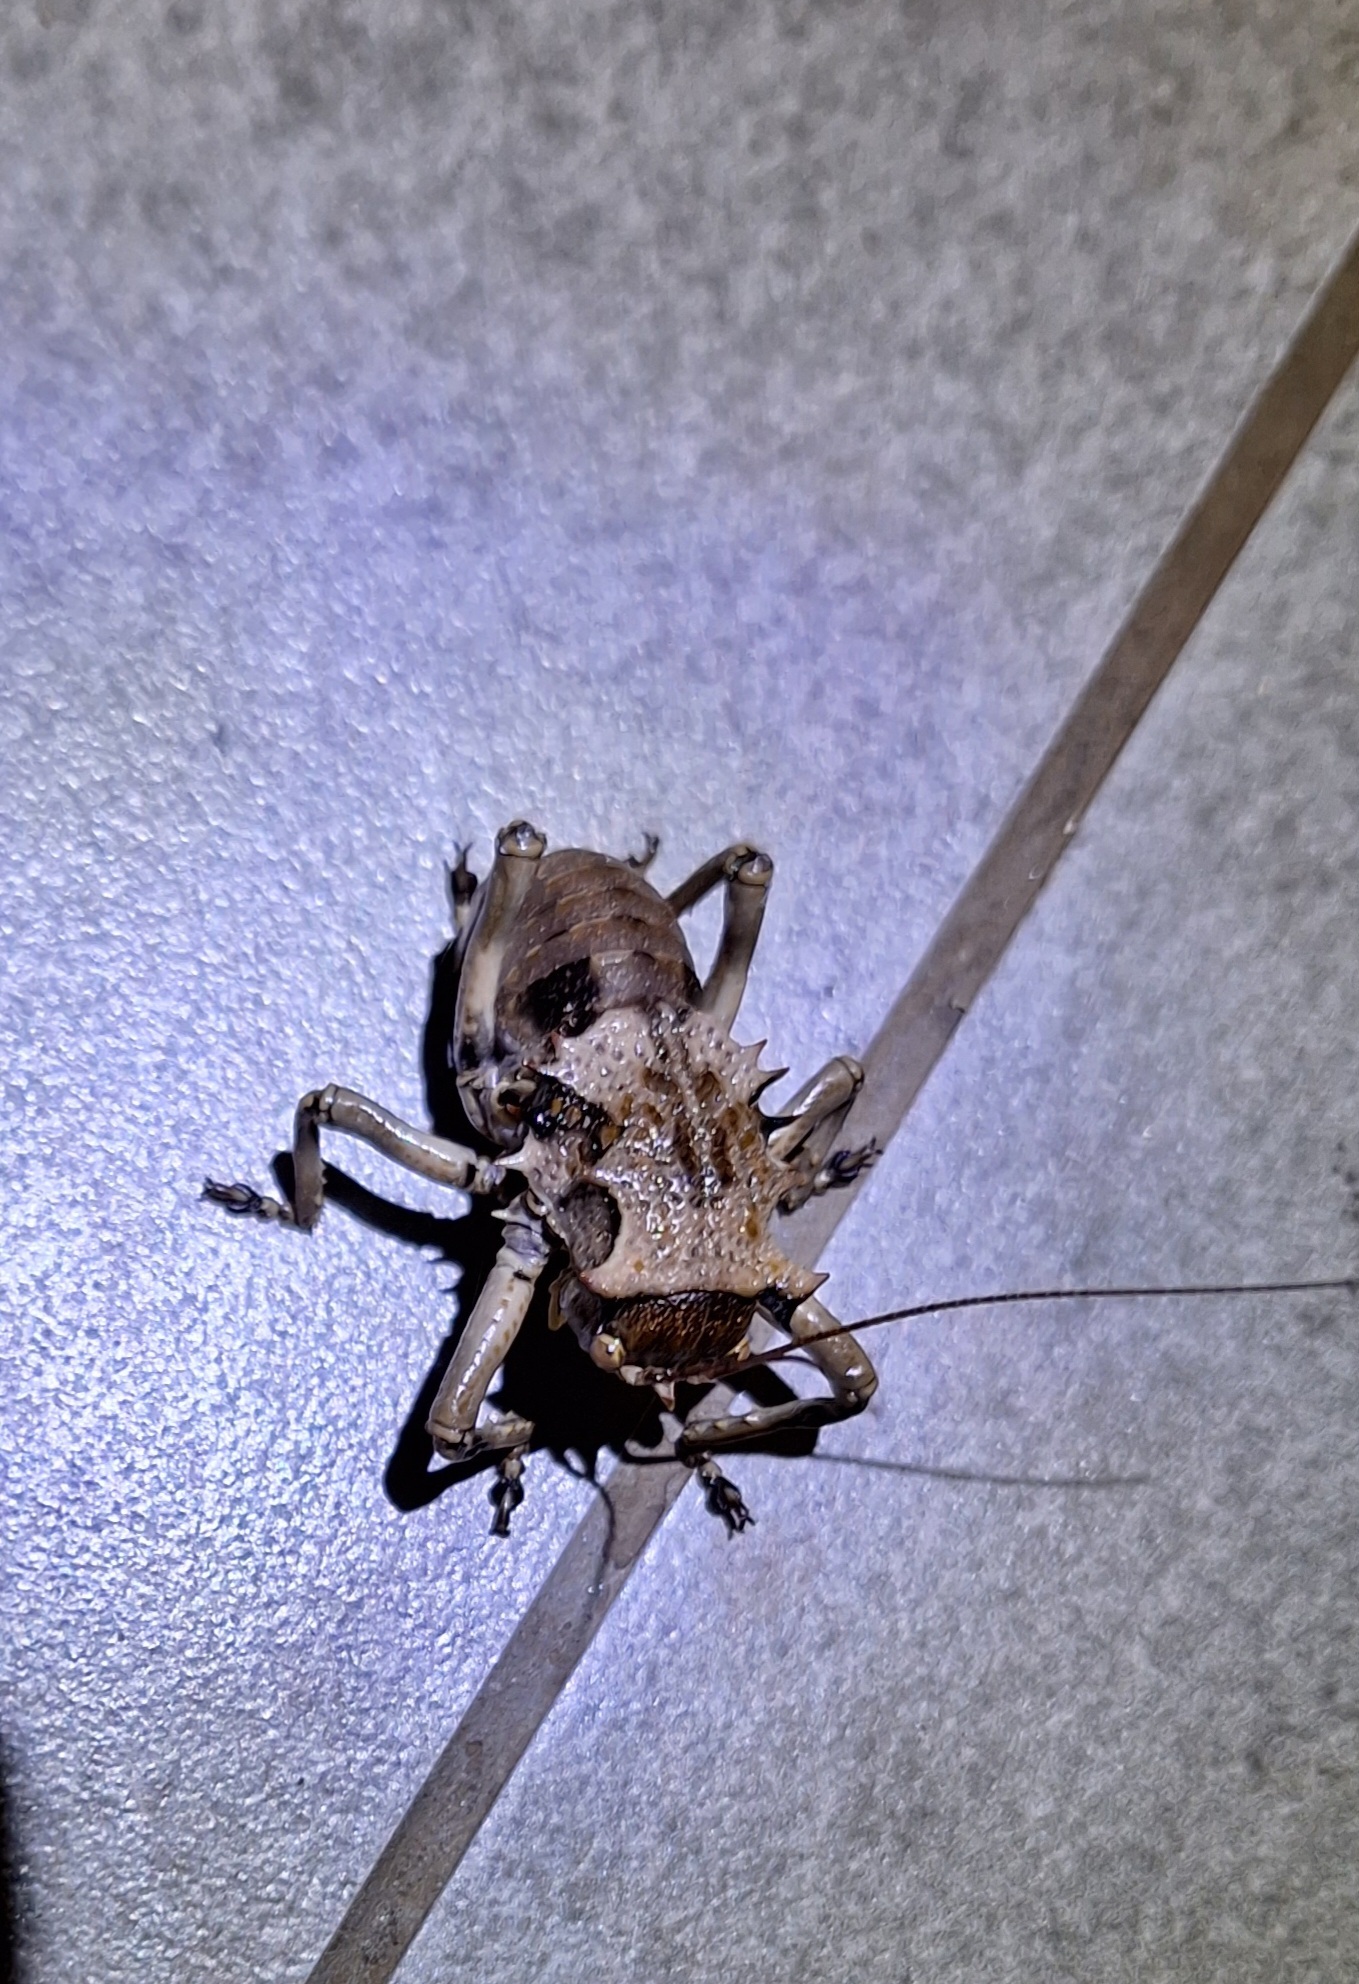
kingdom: Animalia
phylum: Arthropoda
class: Insecta
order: Orthoptera
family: Tettigoniidae
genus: Enyaliopsis
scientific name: Enyaliopsis transvaalensis
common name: Northern armoured katydid
